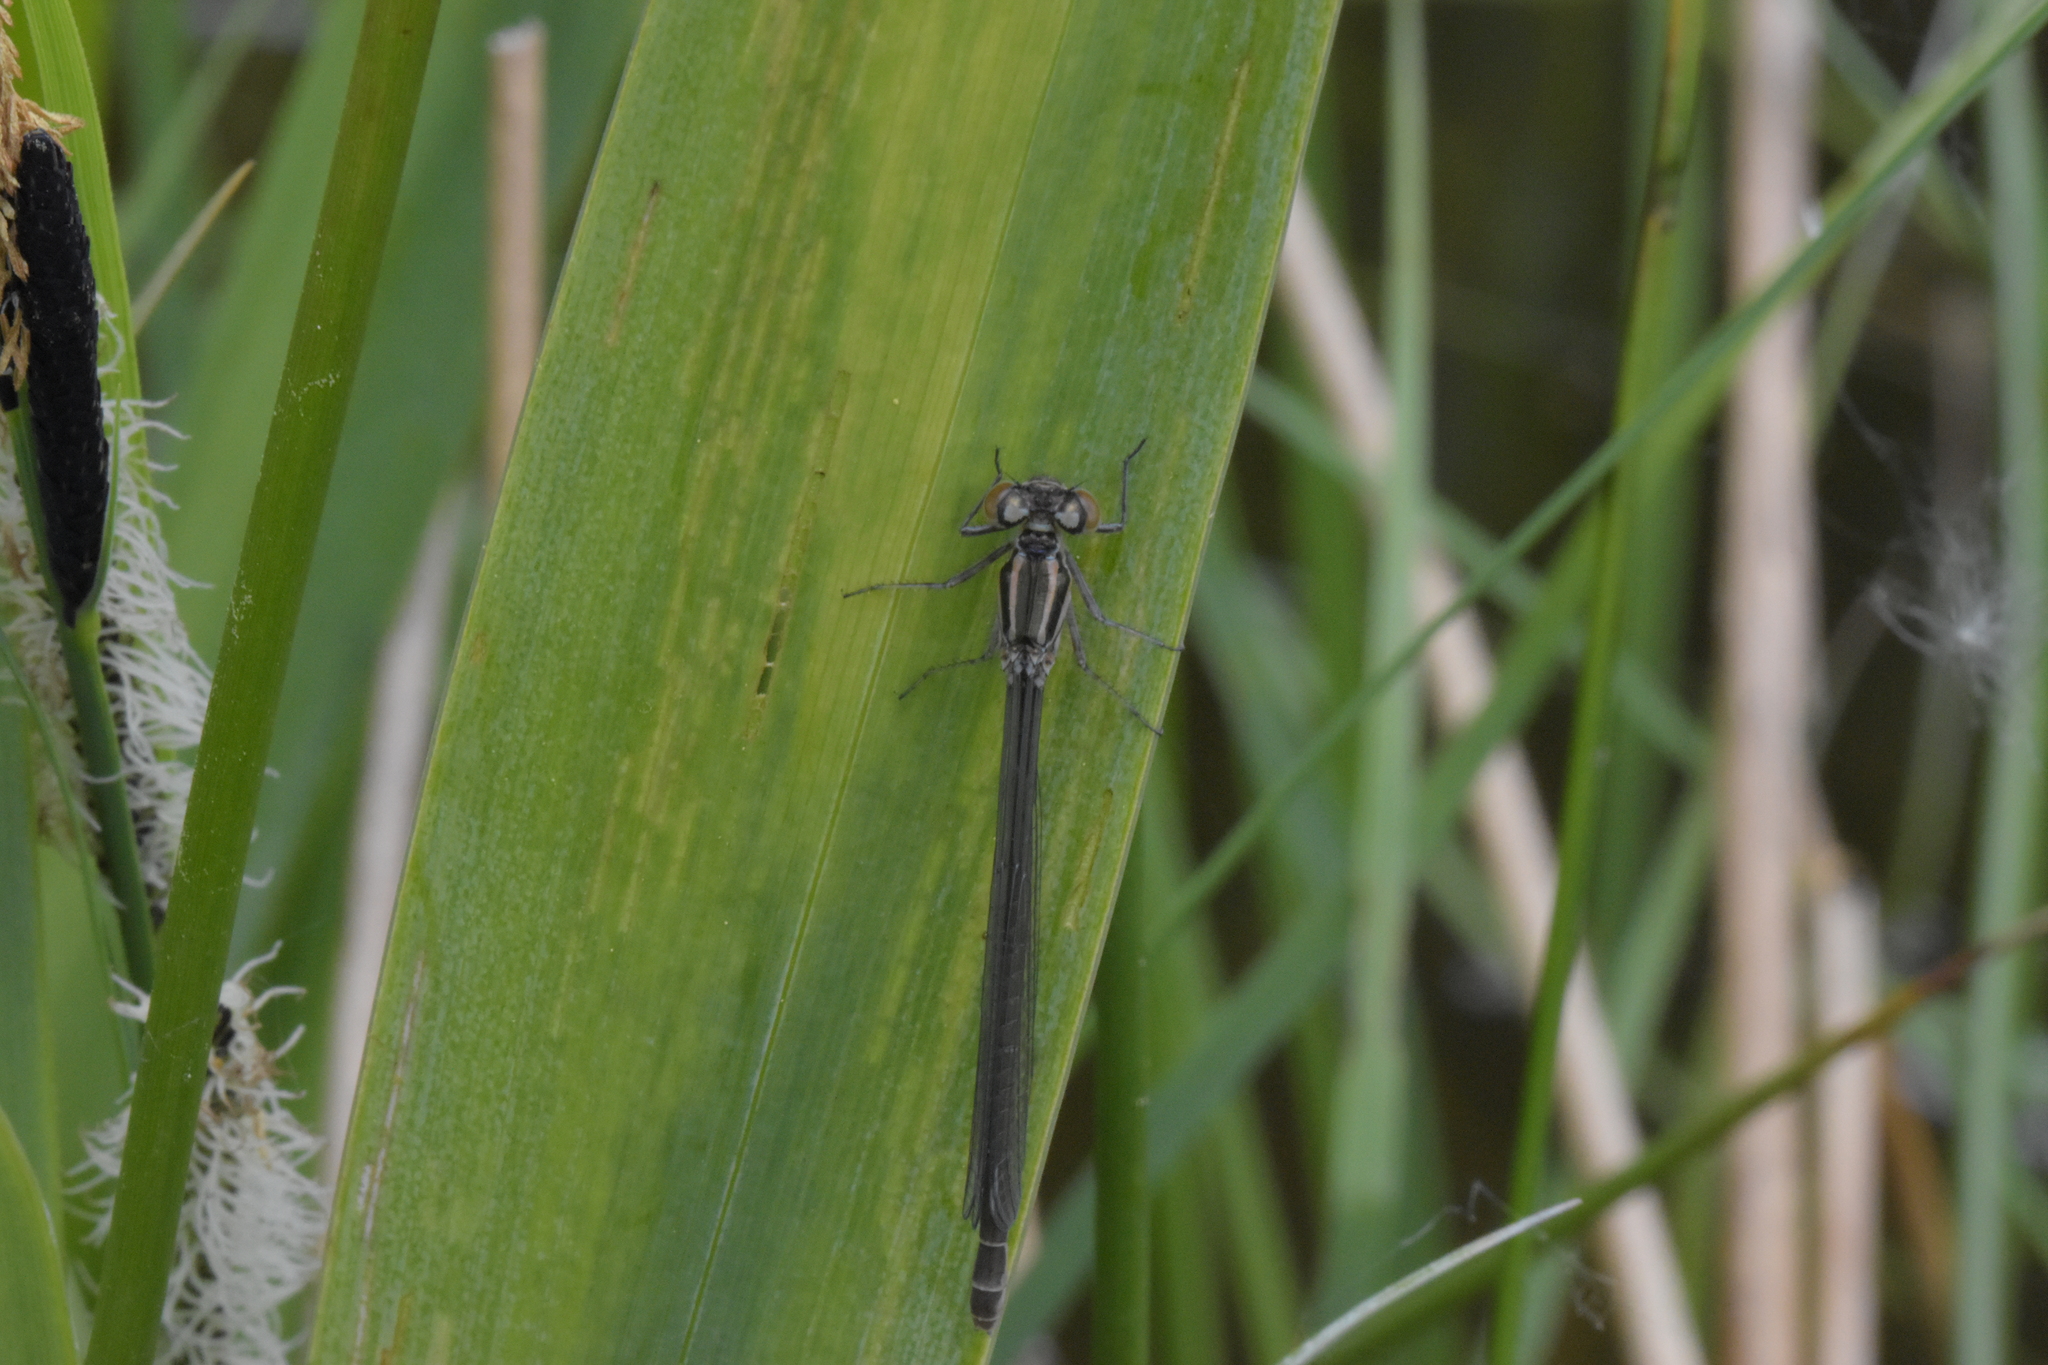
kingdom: Animalia
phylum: Arthropoda
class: Insecta
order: Odonata
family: Coenagrionidae
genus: Coenagrion
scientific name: Coenagrion puella
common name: Azure damselfly
